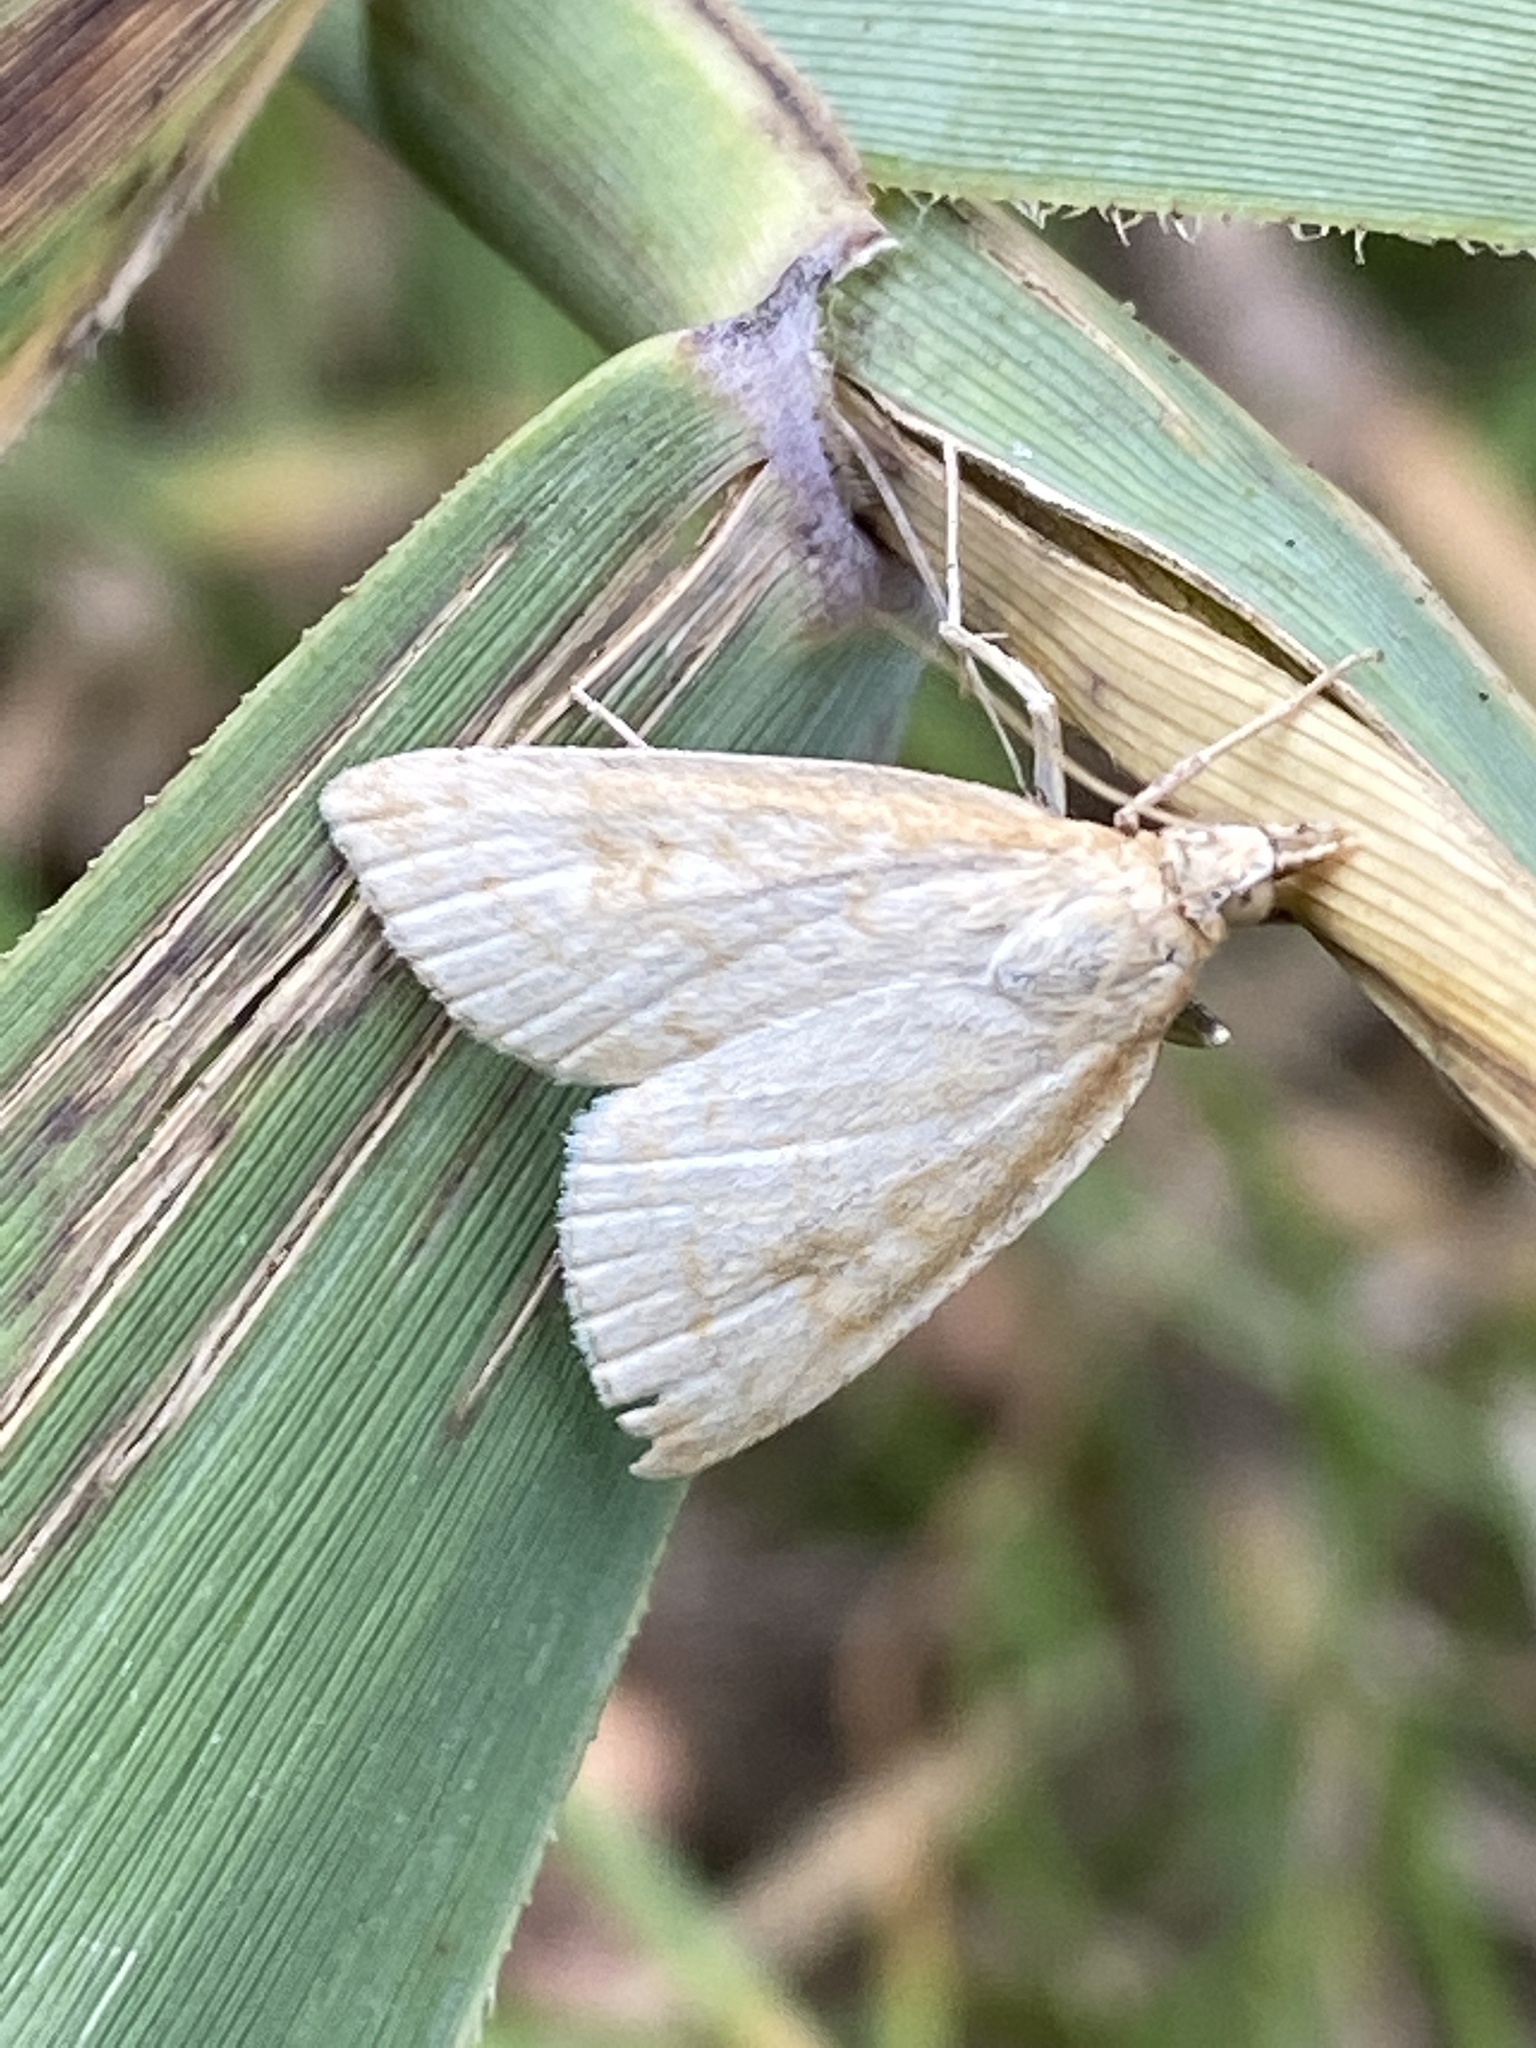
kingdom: Animalia
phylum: Arthropoda
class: Insecta
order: Lepidoptera
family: Crambidae
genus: Udea
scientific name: Udea lutealis
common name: Pale straw pearl
